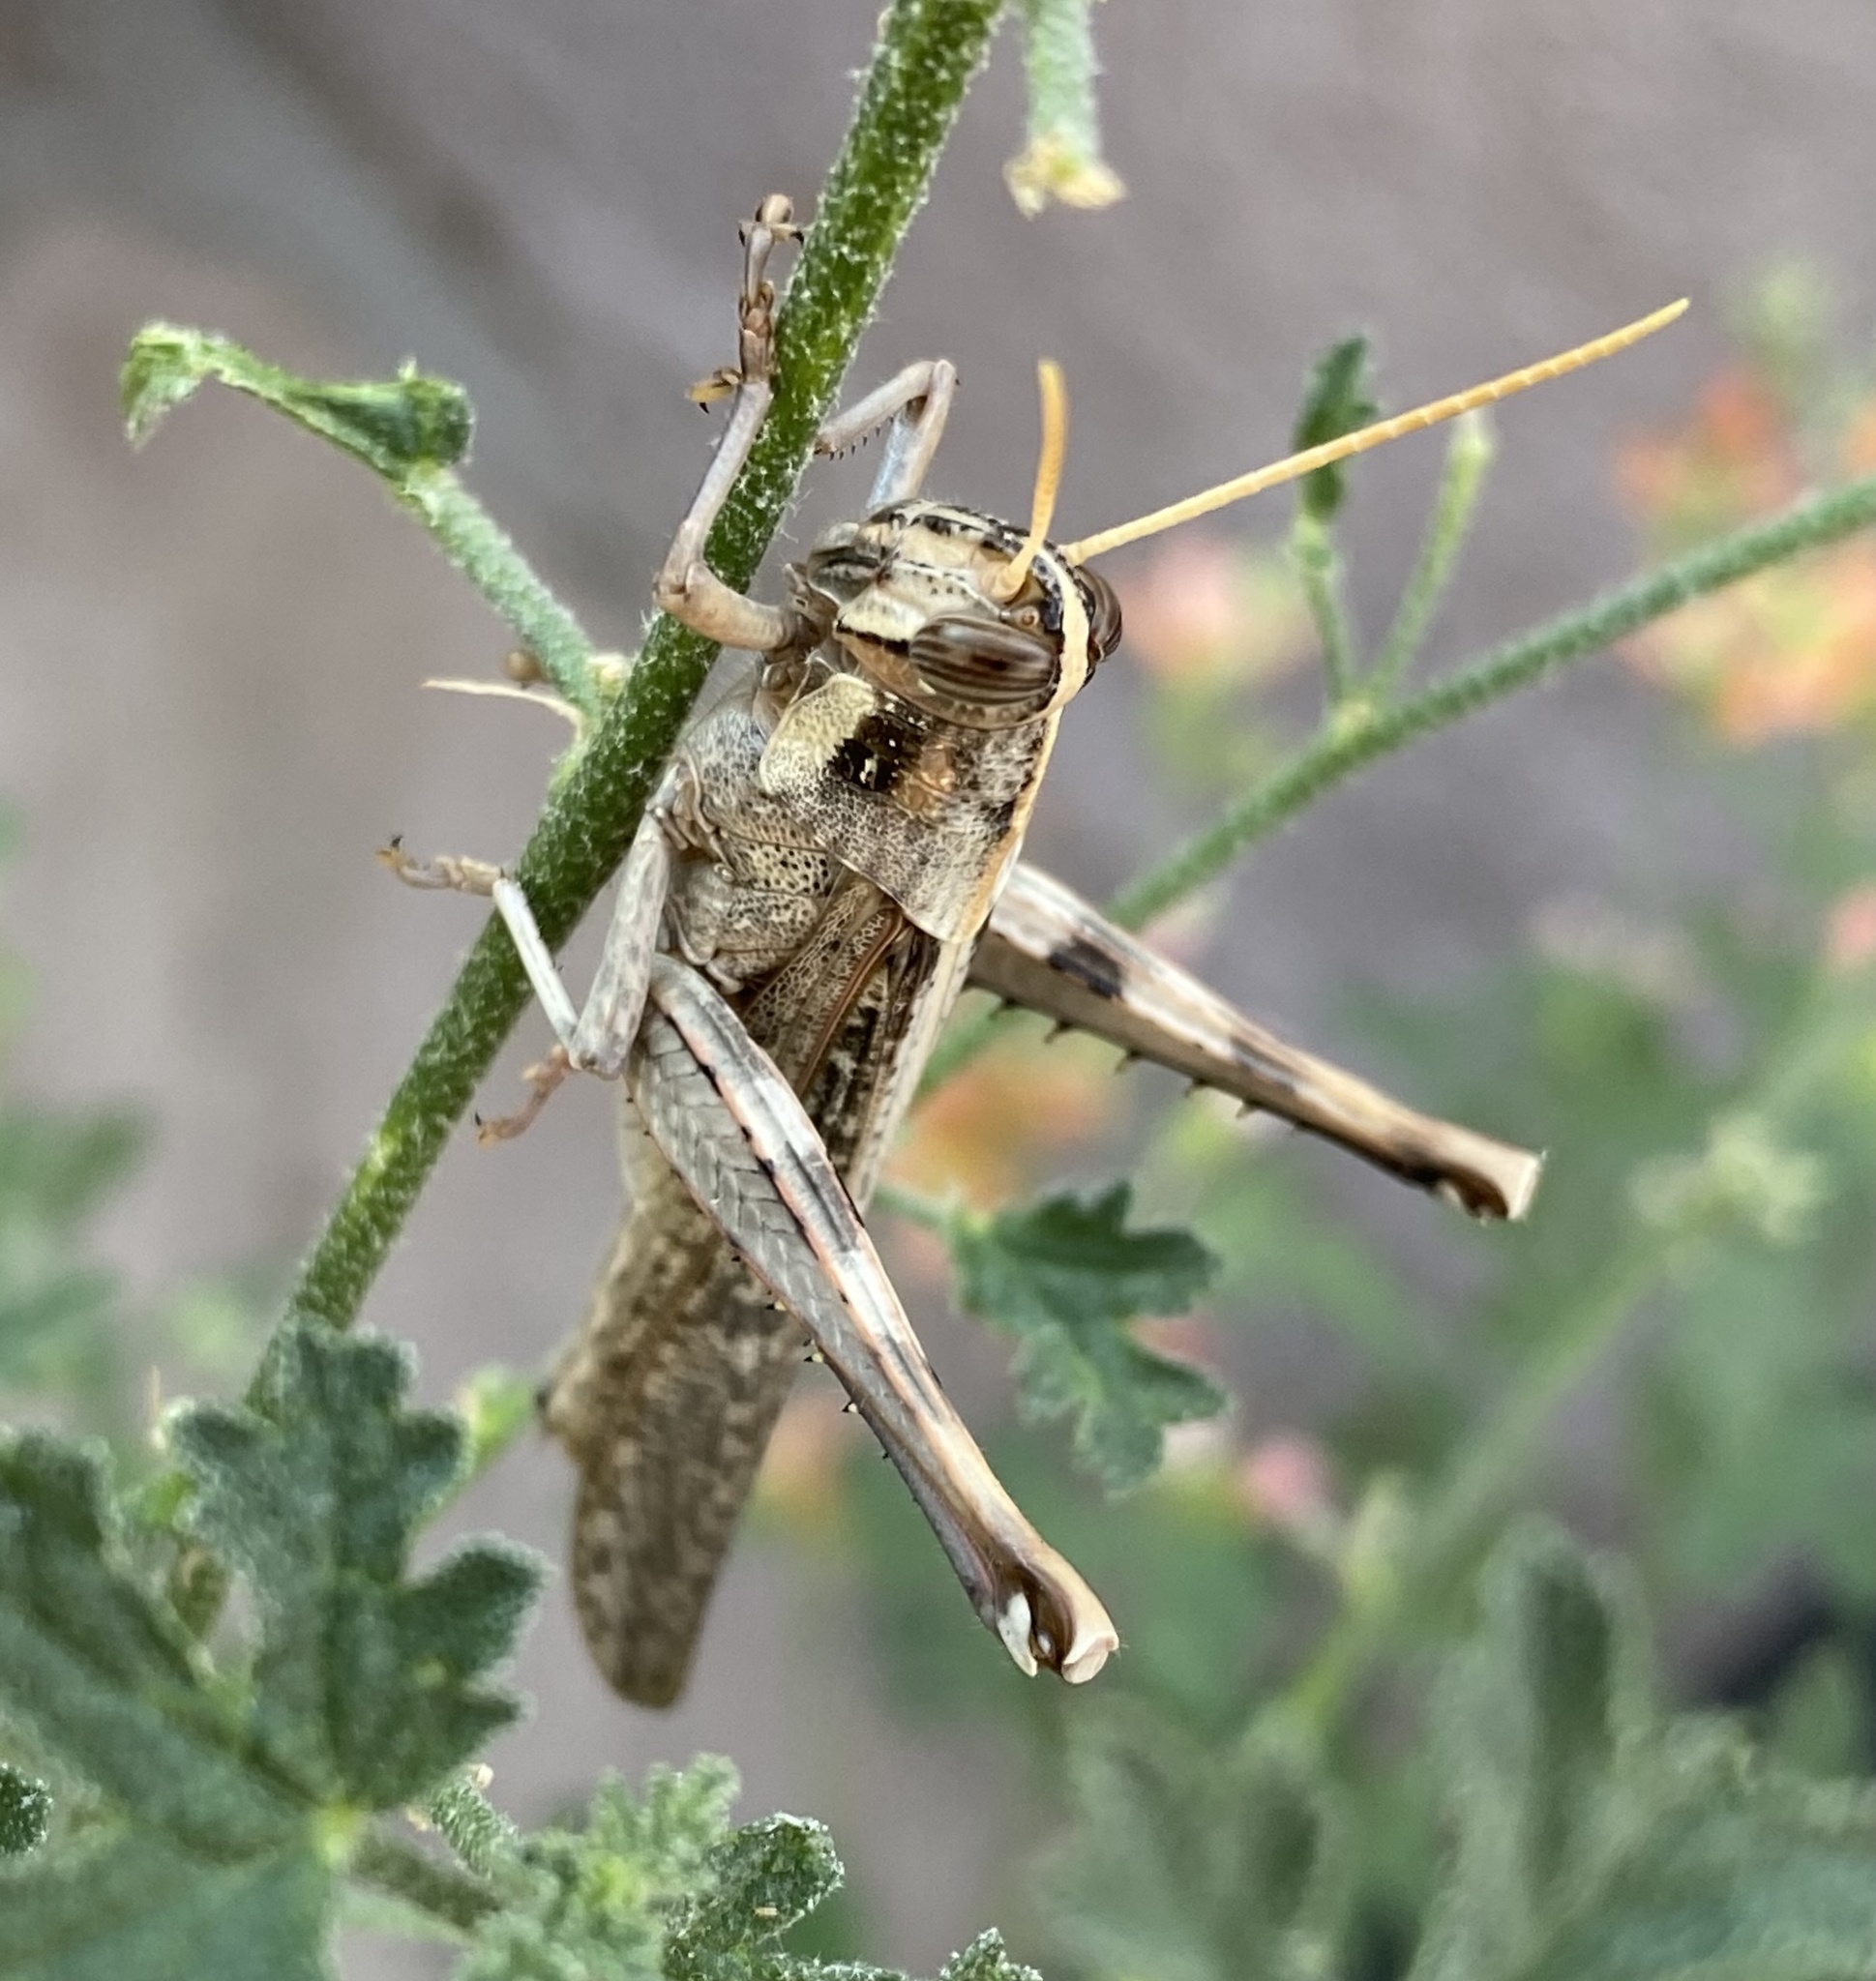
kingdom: Animalia
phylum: Arthropoda
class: Insecta
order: Orthoptera
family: Acrididae
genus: Schistocerca
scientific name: Schistocerca nitens
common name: Vagrant grasshopper
